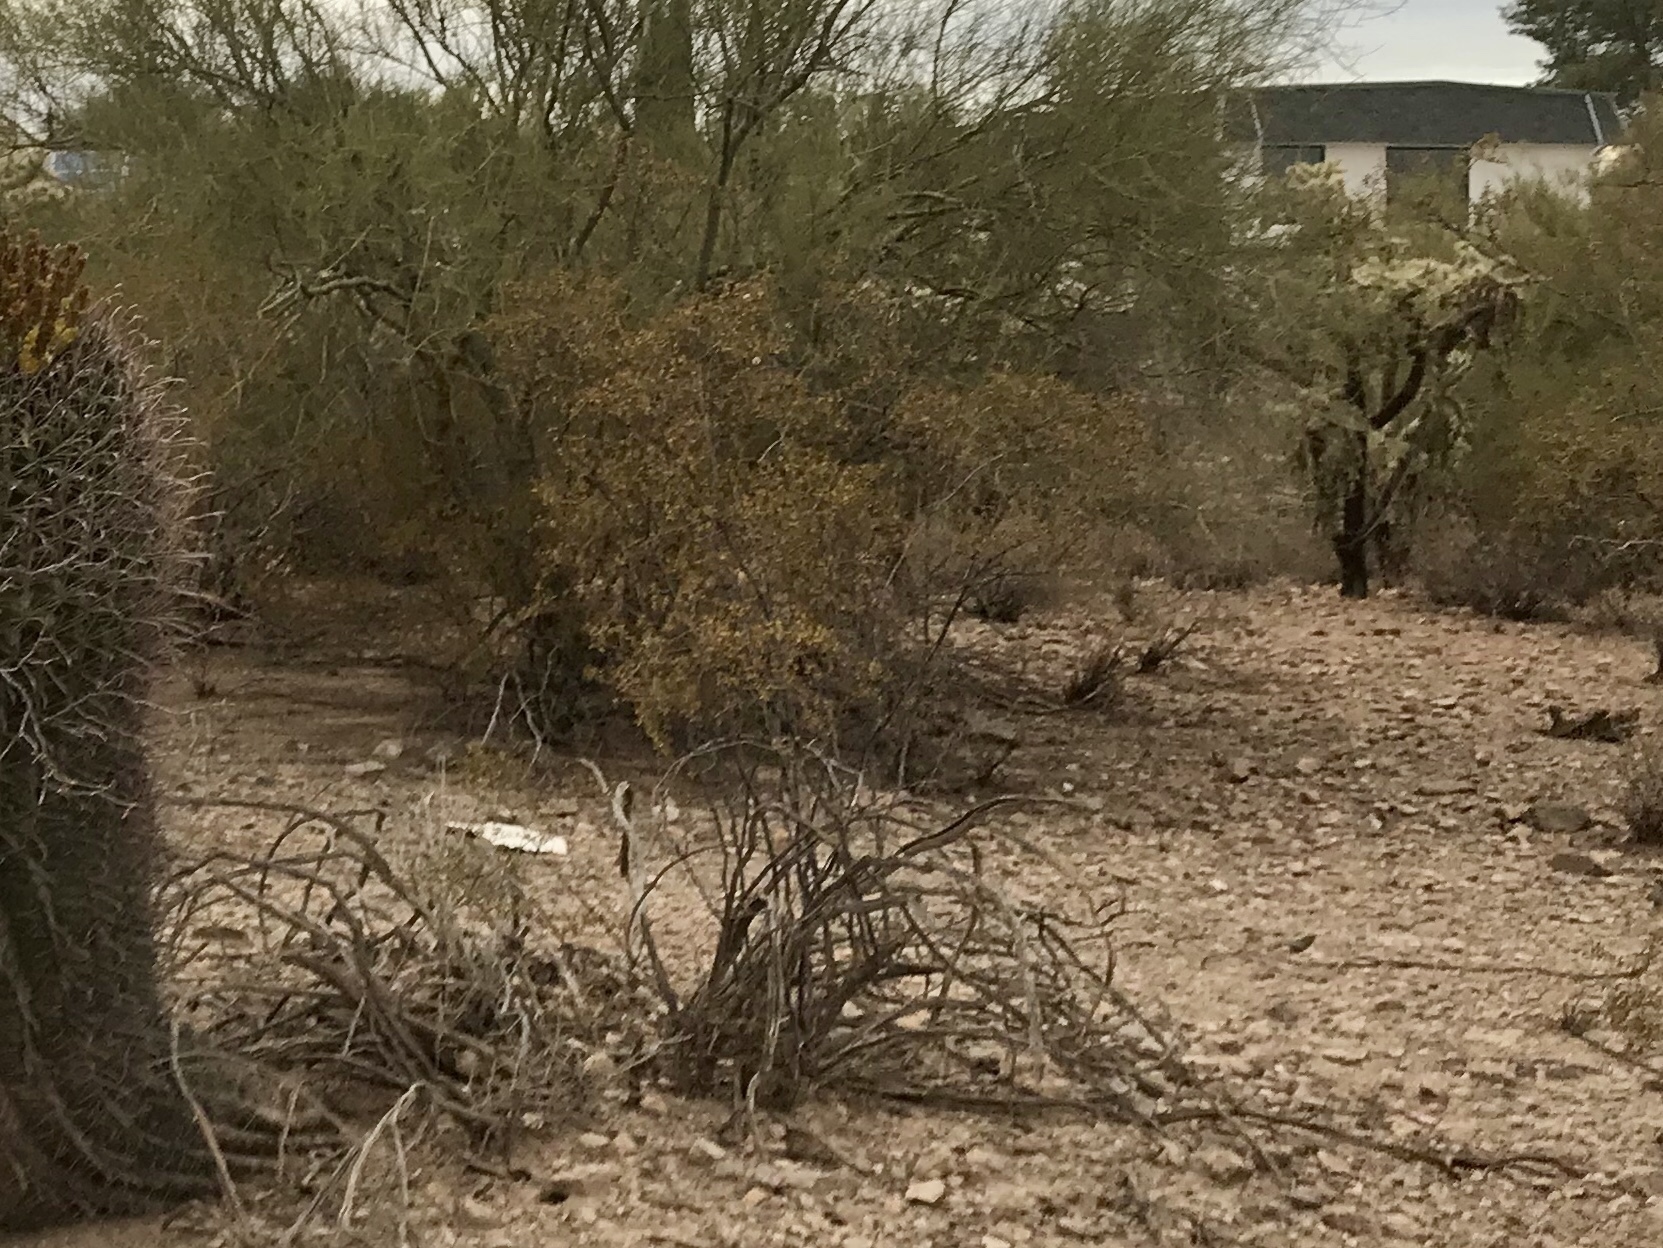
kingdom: Plantae
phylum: Tracheophyta
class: Magnoliopsida
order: Zygophyllales
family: Zygophyllaceae
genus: Larrea
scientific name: Larrea tridentata
